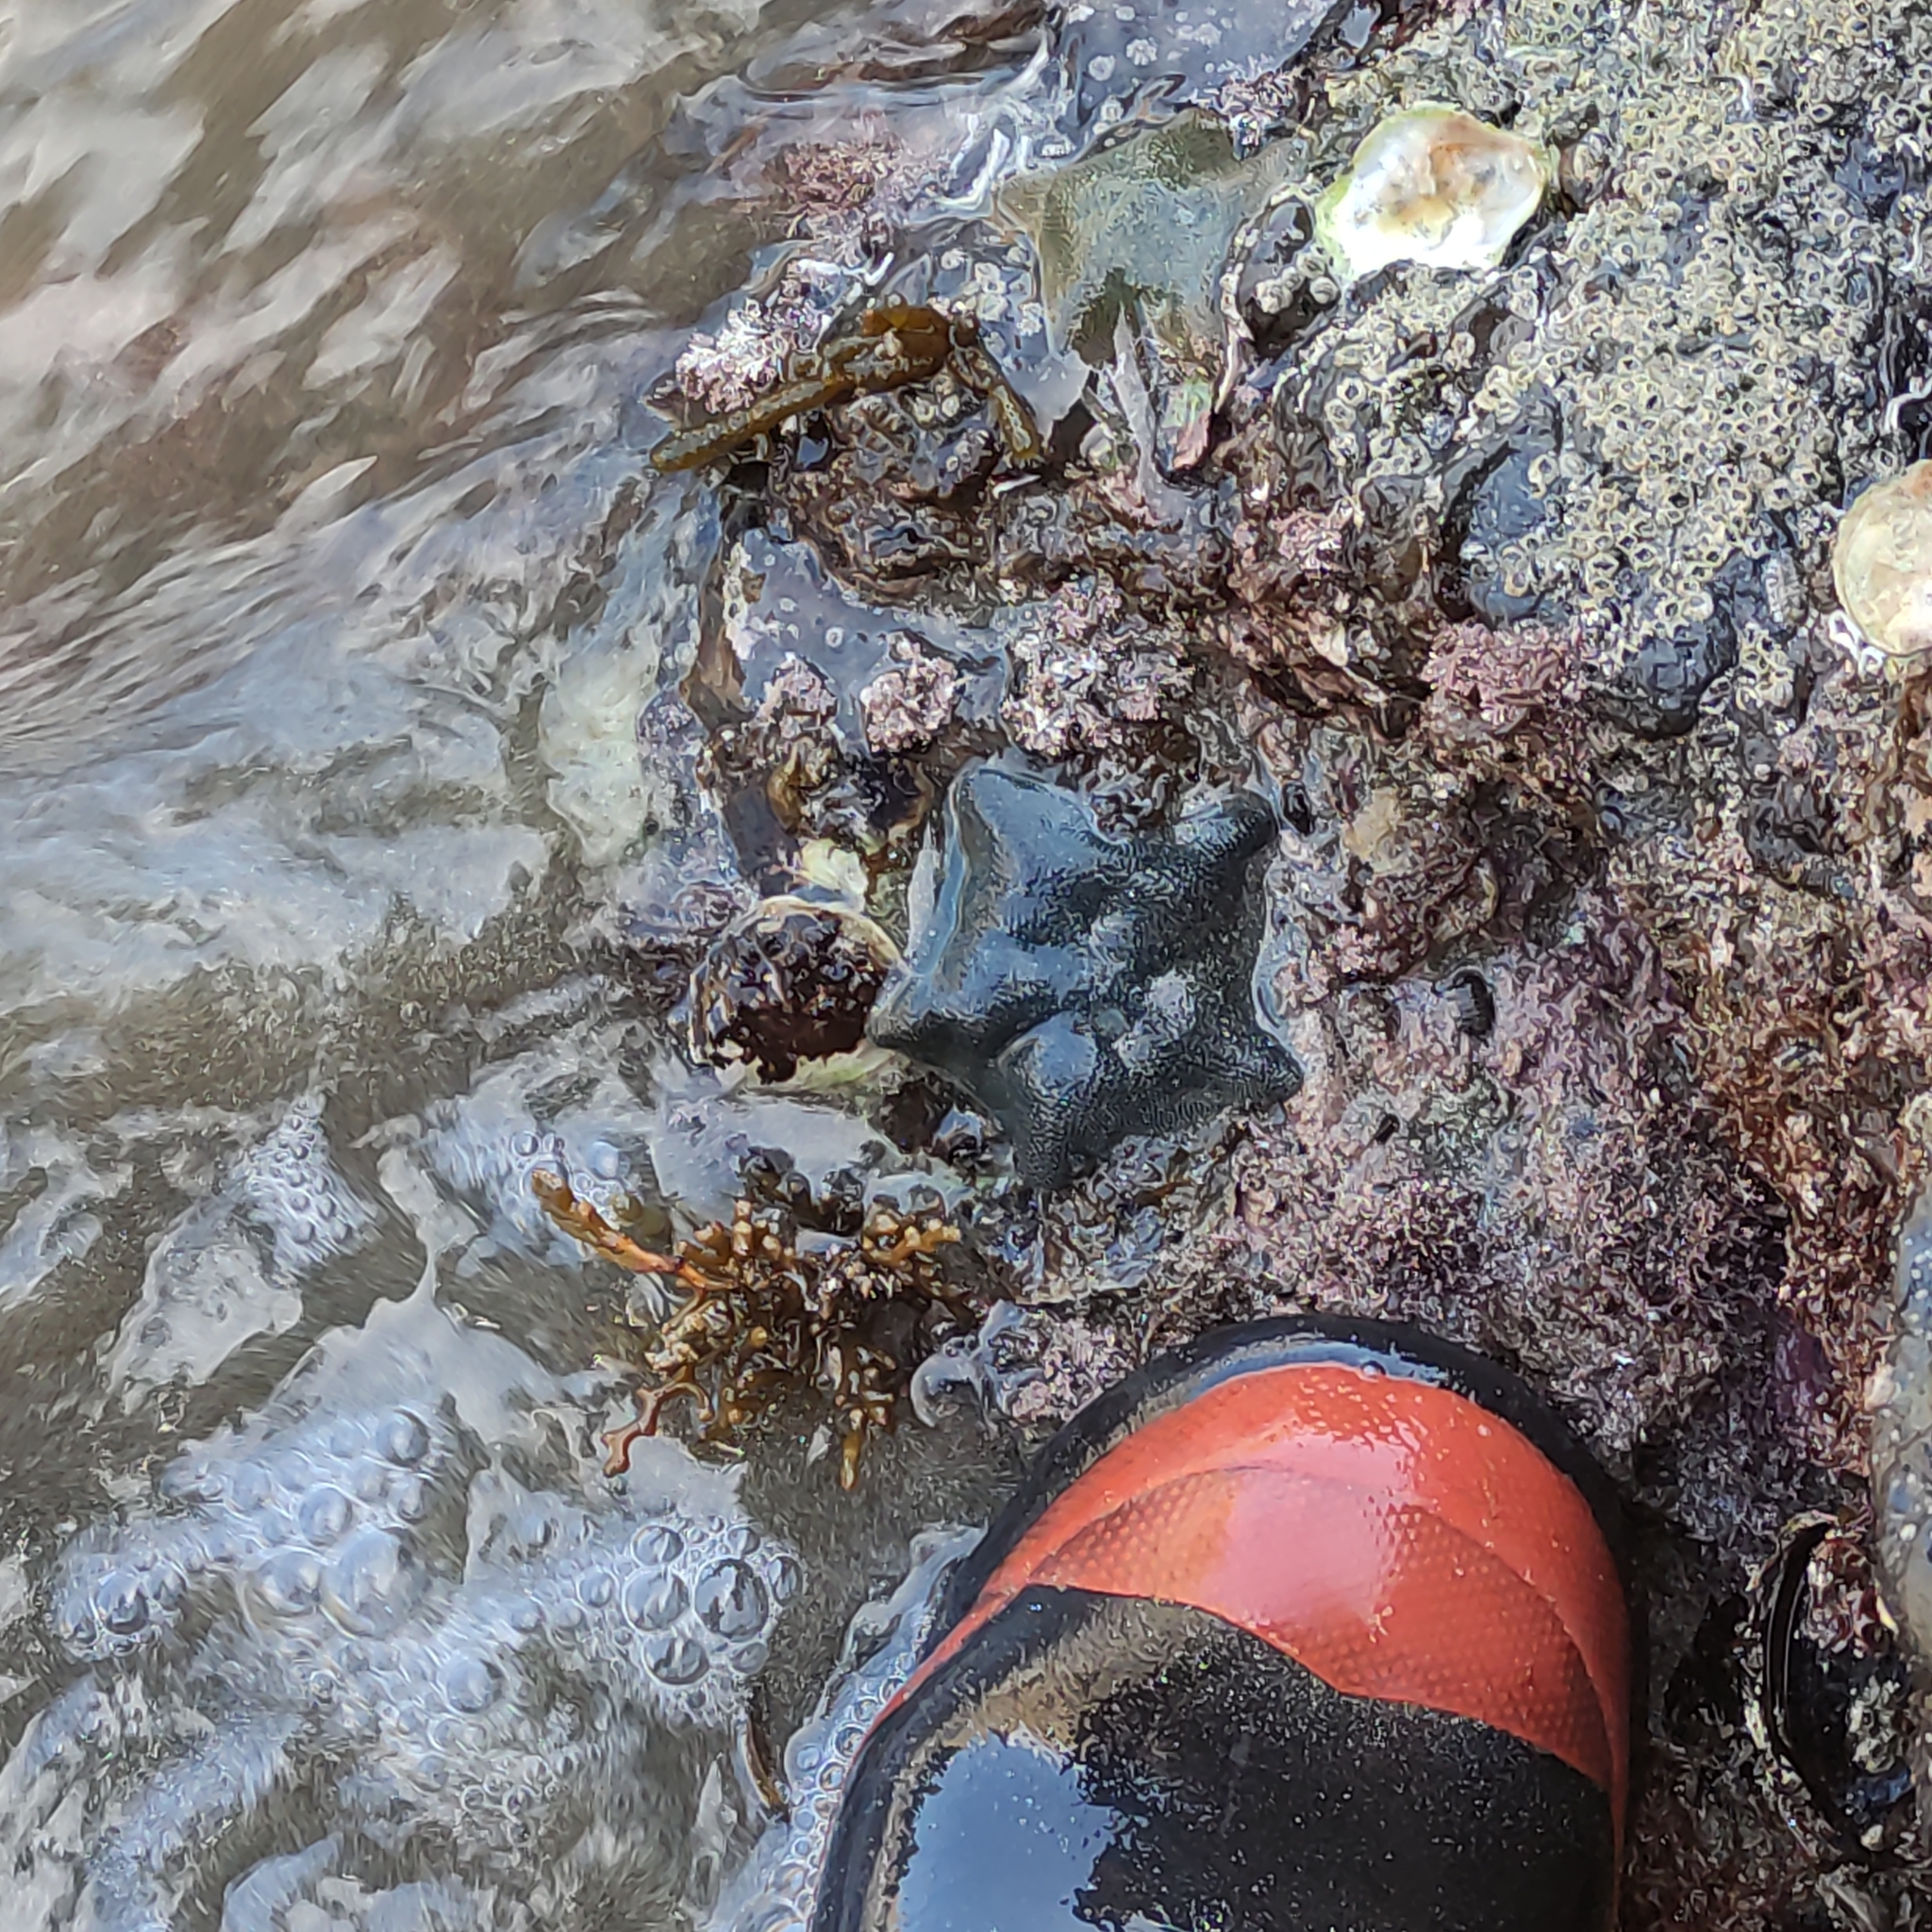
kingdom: Animalia
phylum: Echinodermata
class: Asteroidea
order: Valvatida
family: Asterinidae
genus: Patiriella
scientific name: Patiriella regularis
